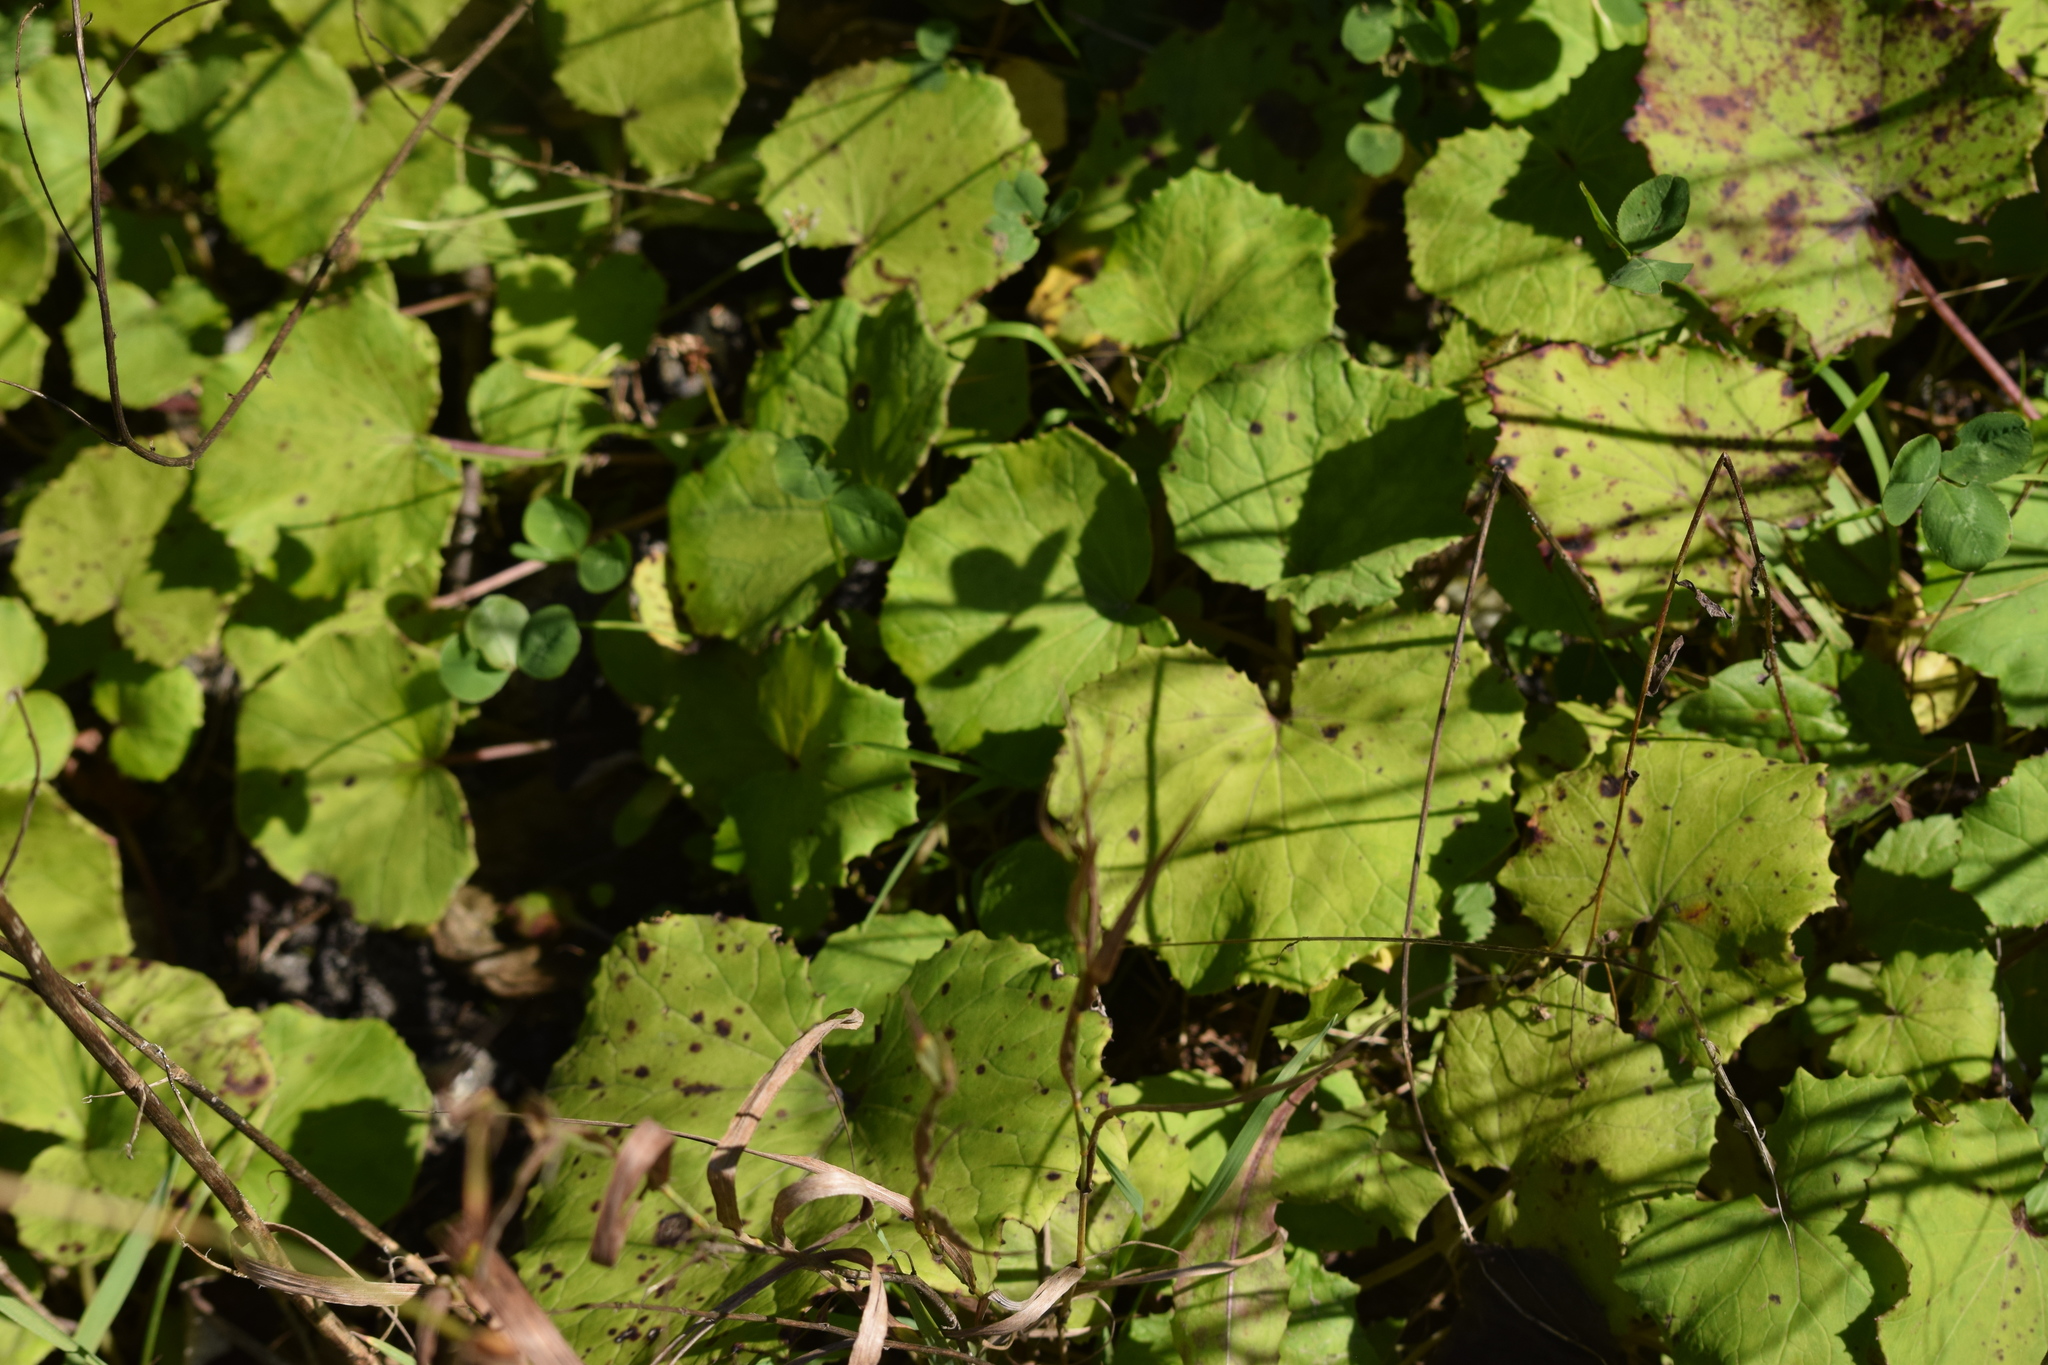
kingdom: Plantae
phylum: Tracheophyta
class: Magnoliopsida
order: Asterales
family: Asteraceae
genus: Tussilago
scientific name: Tussilago farfara
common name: Coltsfoot
